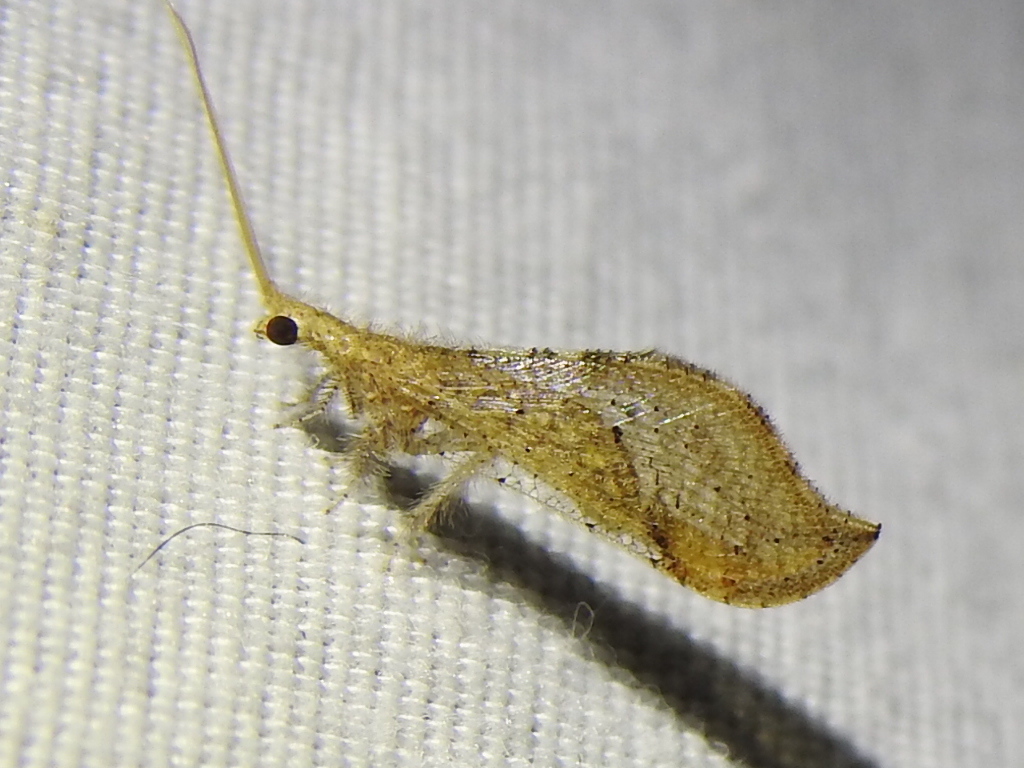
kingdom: Animalia
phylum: Arthropoda
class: Insecta
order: Neuroptera
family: Berothidae
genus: Lomamyia
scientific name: Lomamyia squamosa
